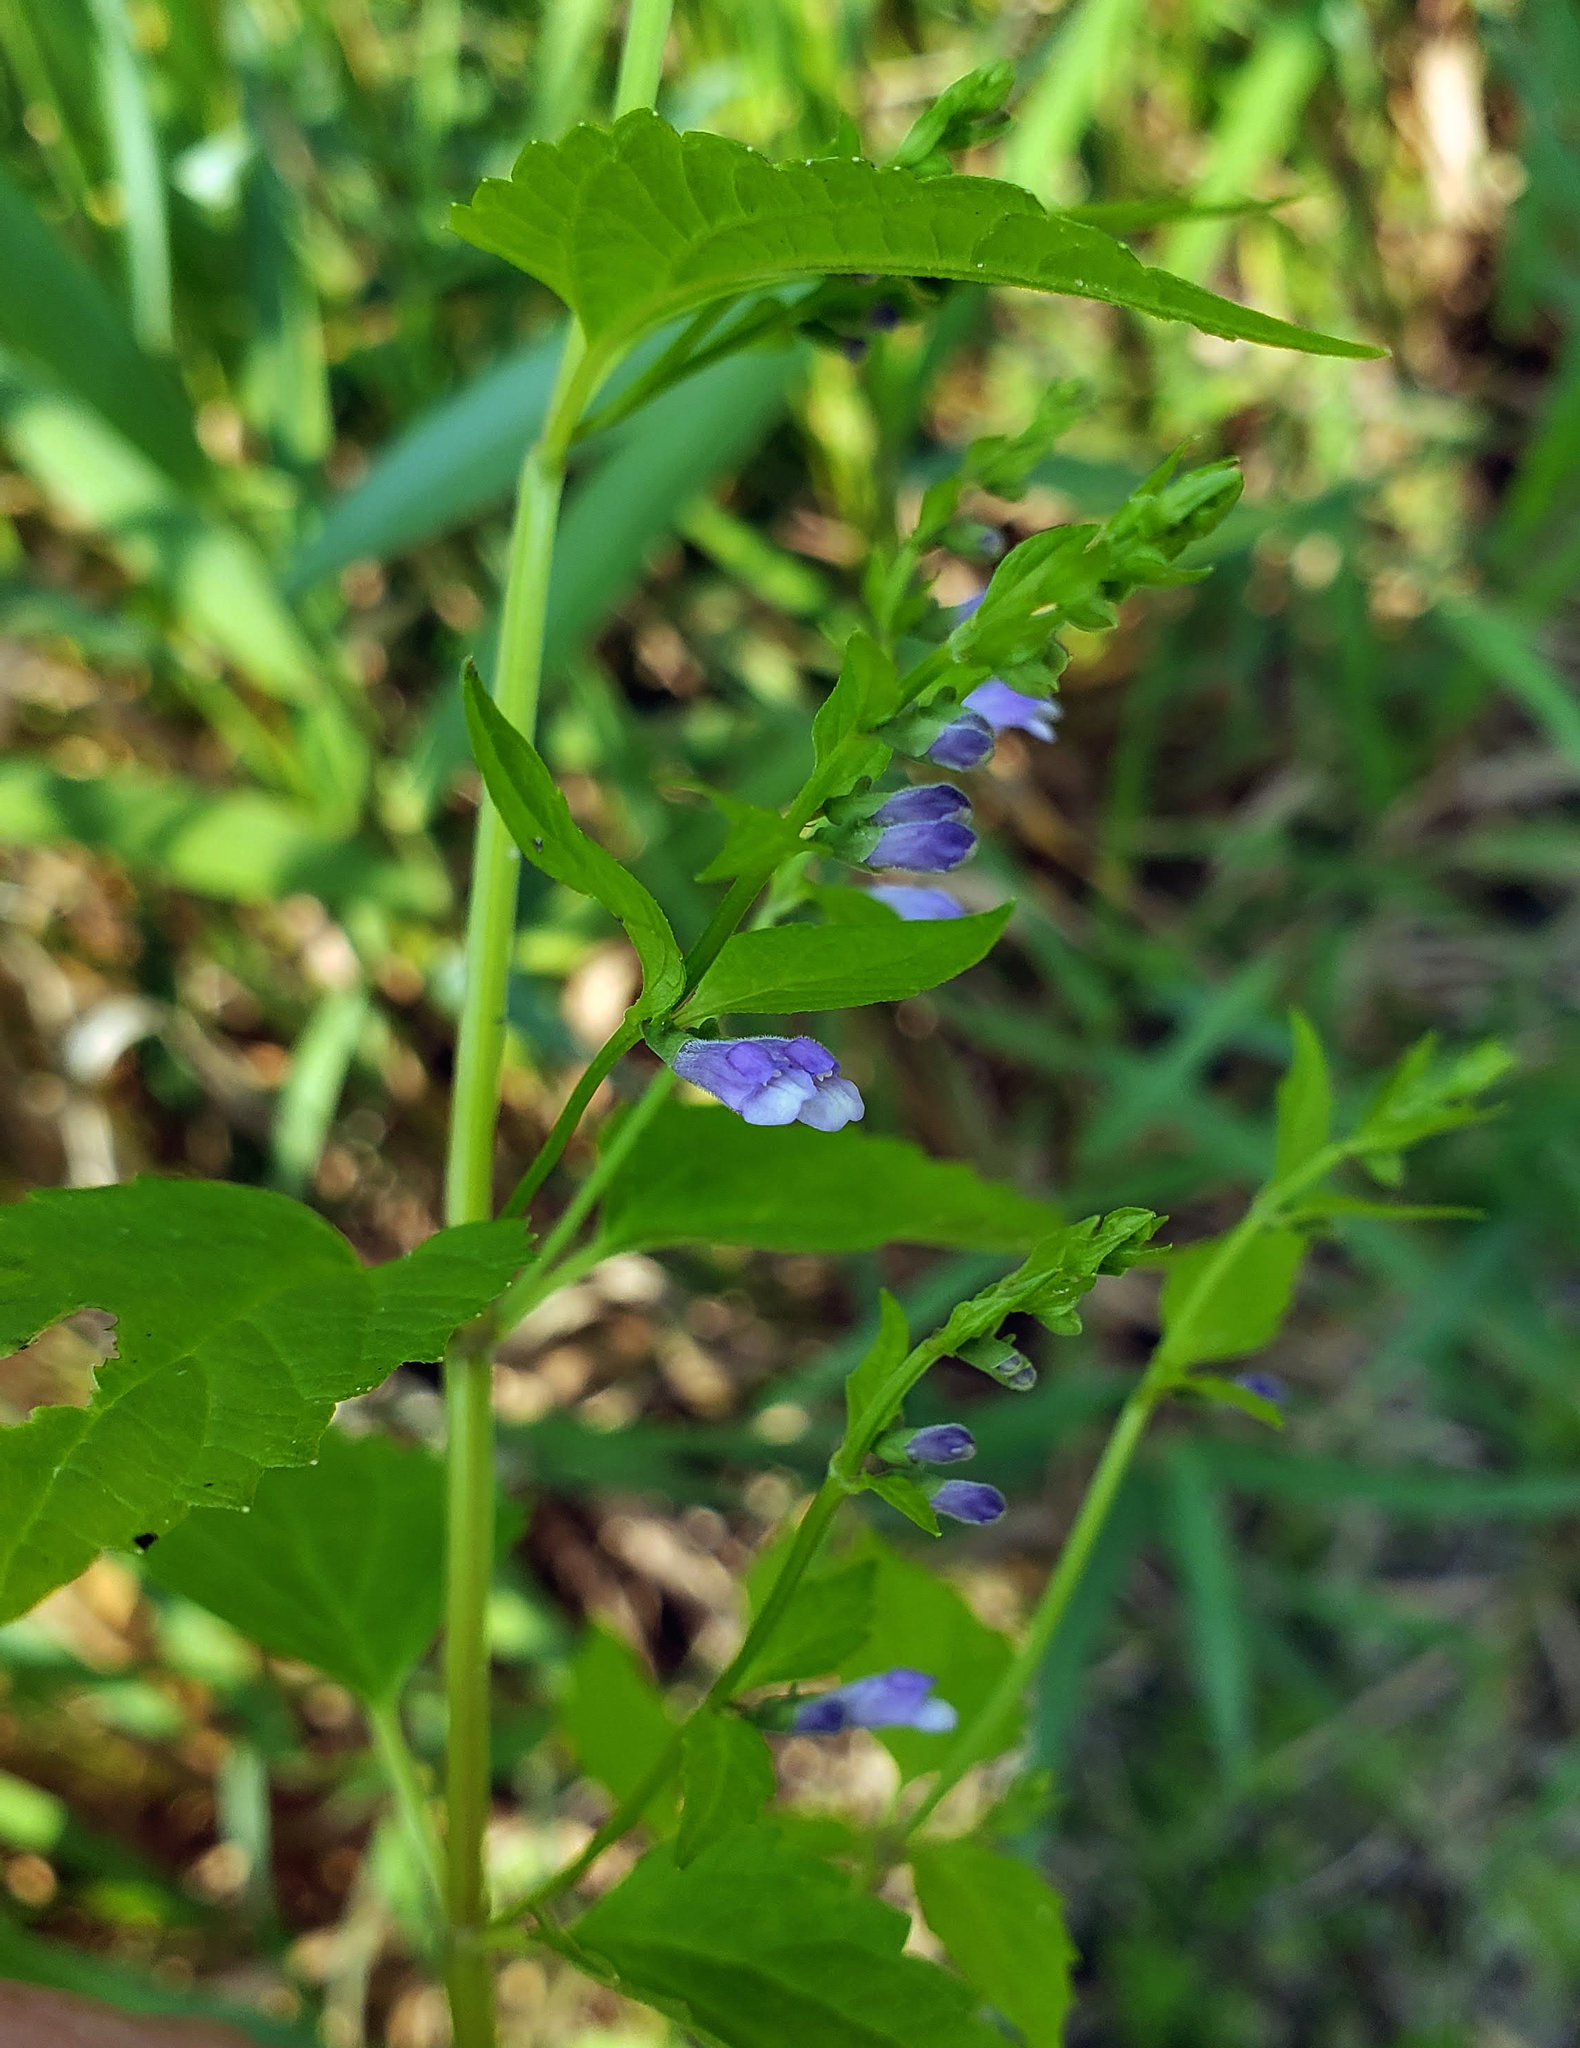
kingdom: Plantae
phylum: Tracheophyta
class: Magnoliopsida
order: Lamiales
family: Lamiaceae
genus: Scutellaria
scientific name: Scutellaria lateriflora
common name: Blue skullcap
